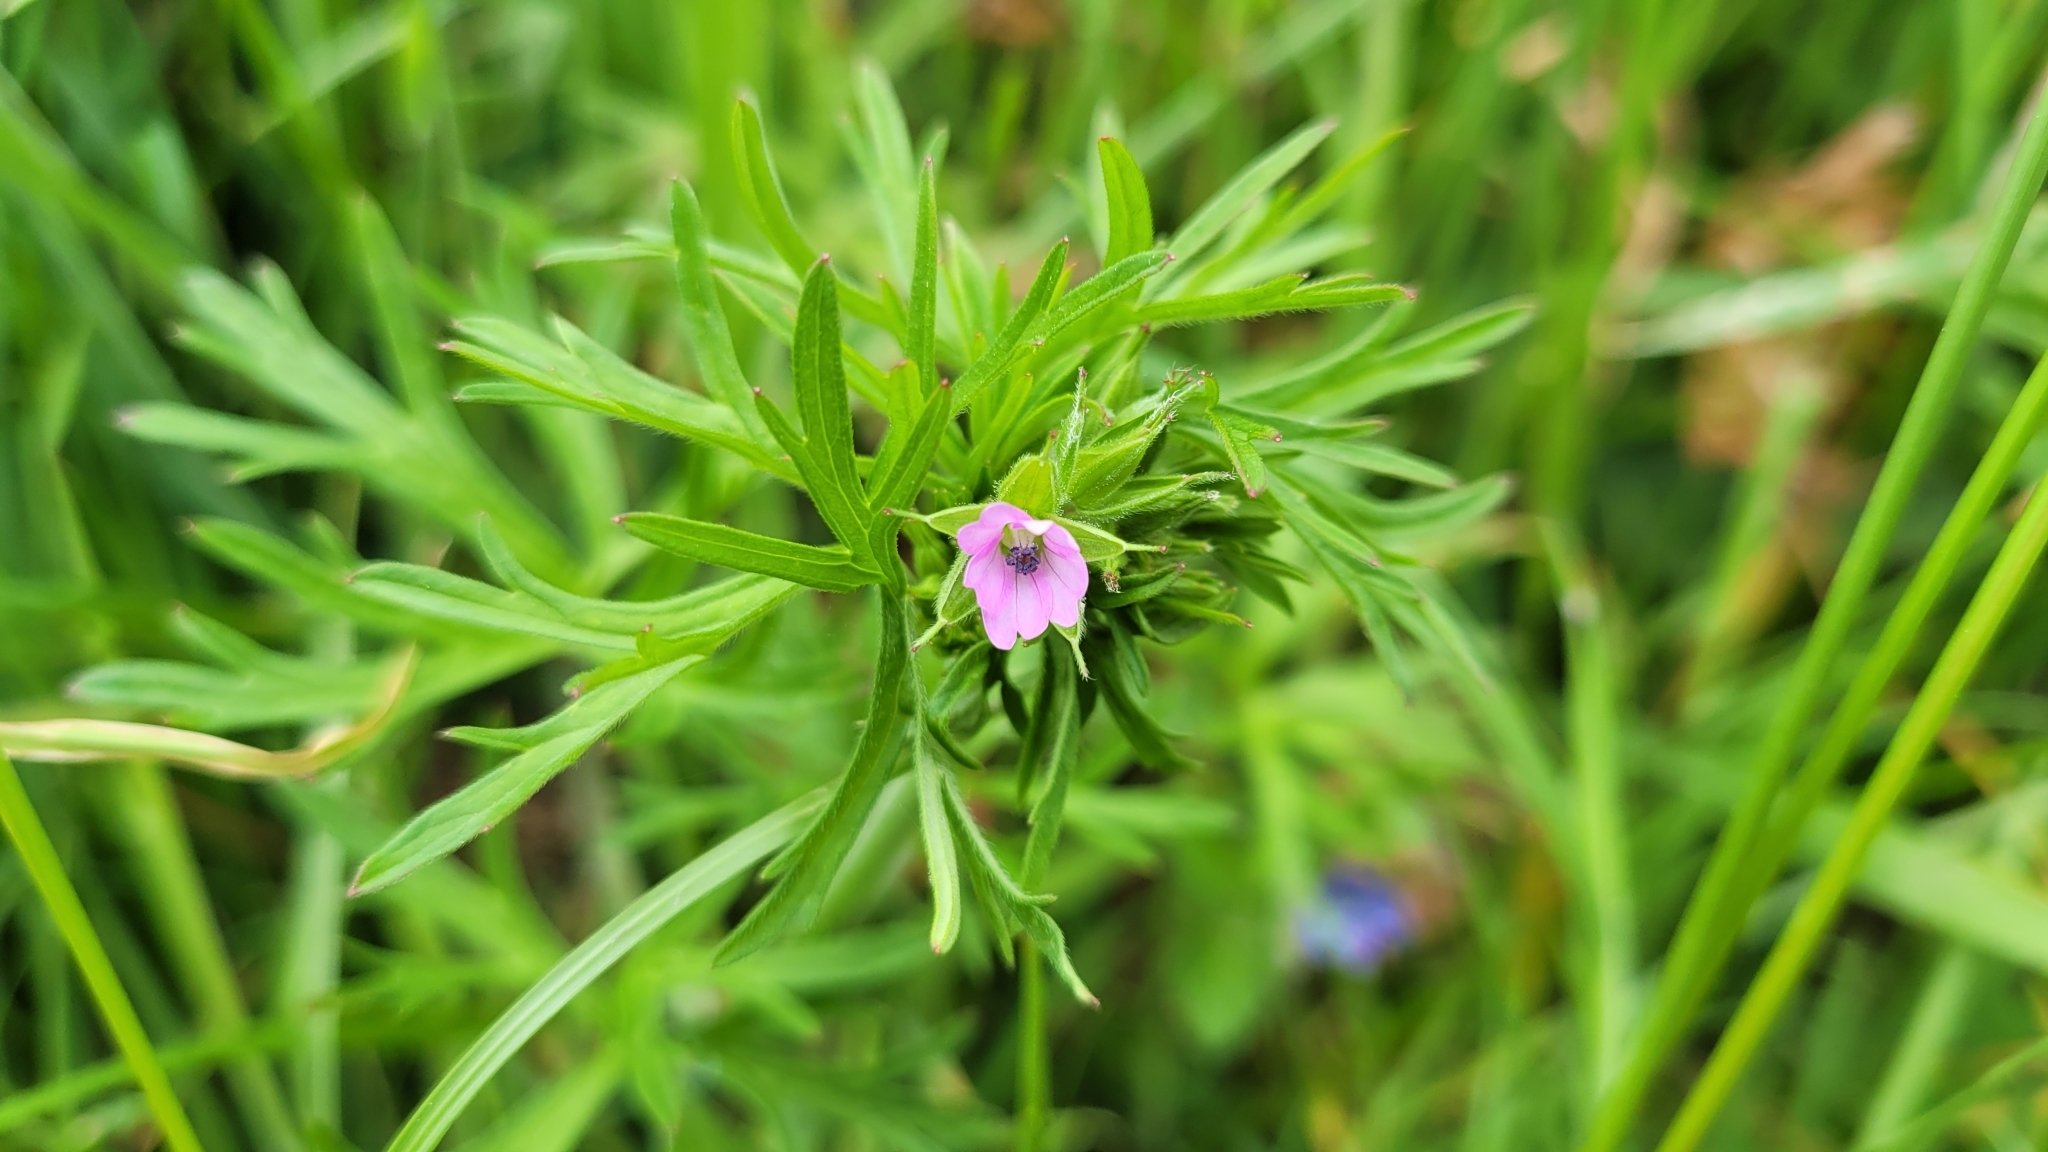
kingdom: Plantae
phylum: Tracheophyta
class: Magnoliopsida
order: Geraniales
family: Geraniaceae
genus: Geranium
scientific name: Geranium dissectum
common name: Cut-leaved crane's-bill
